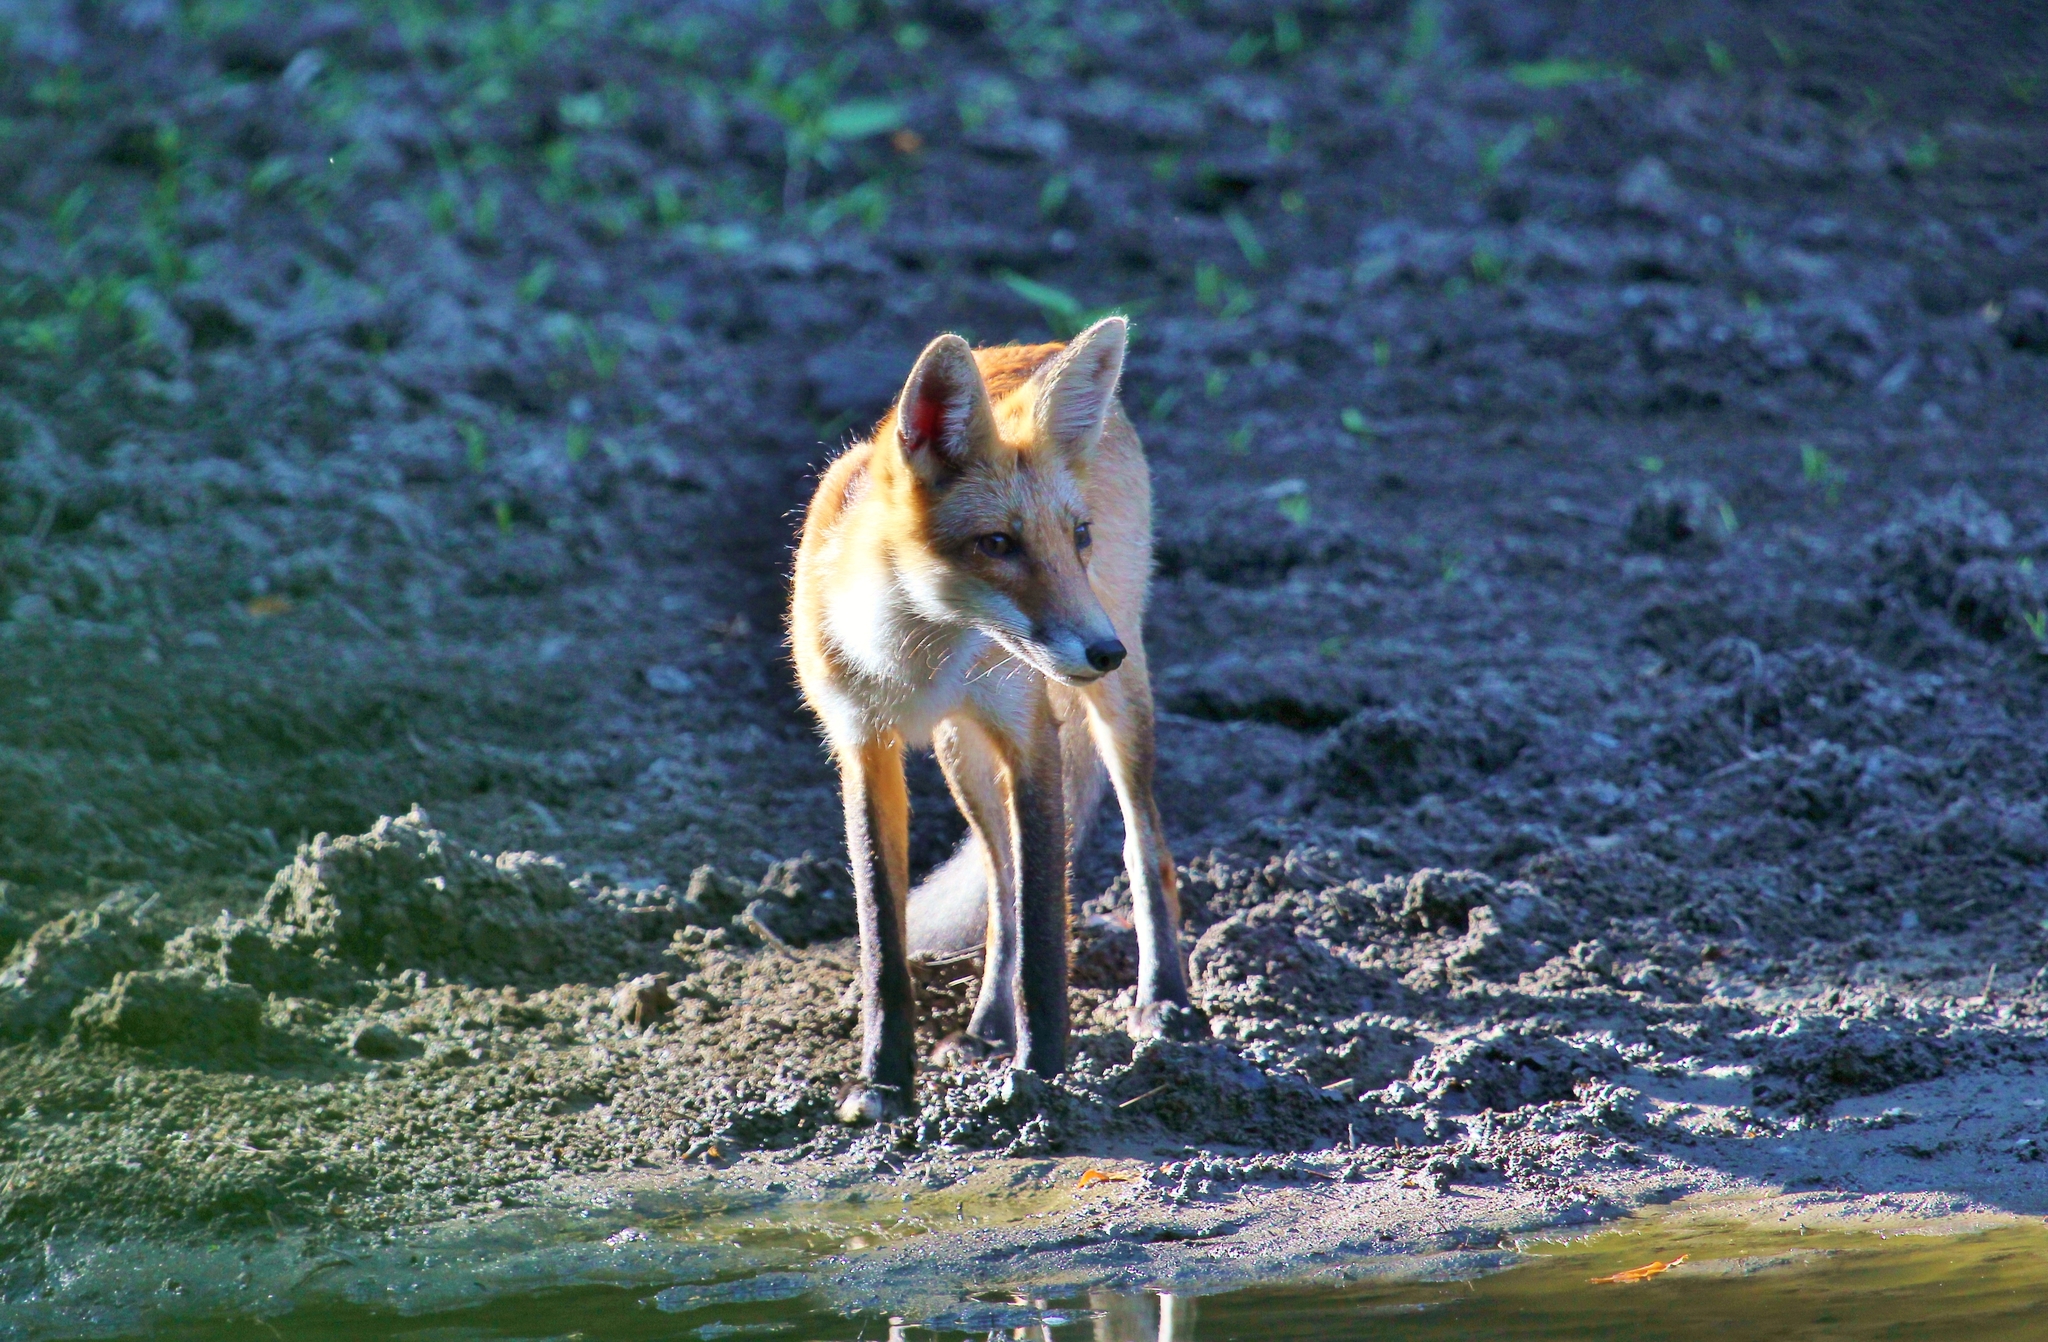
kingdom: Animalia
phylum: Chordata
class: Mammalia
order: Carnivora
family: Canidae
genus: Vulpes
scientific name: Vulpes vulpes
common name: Red fox
